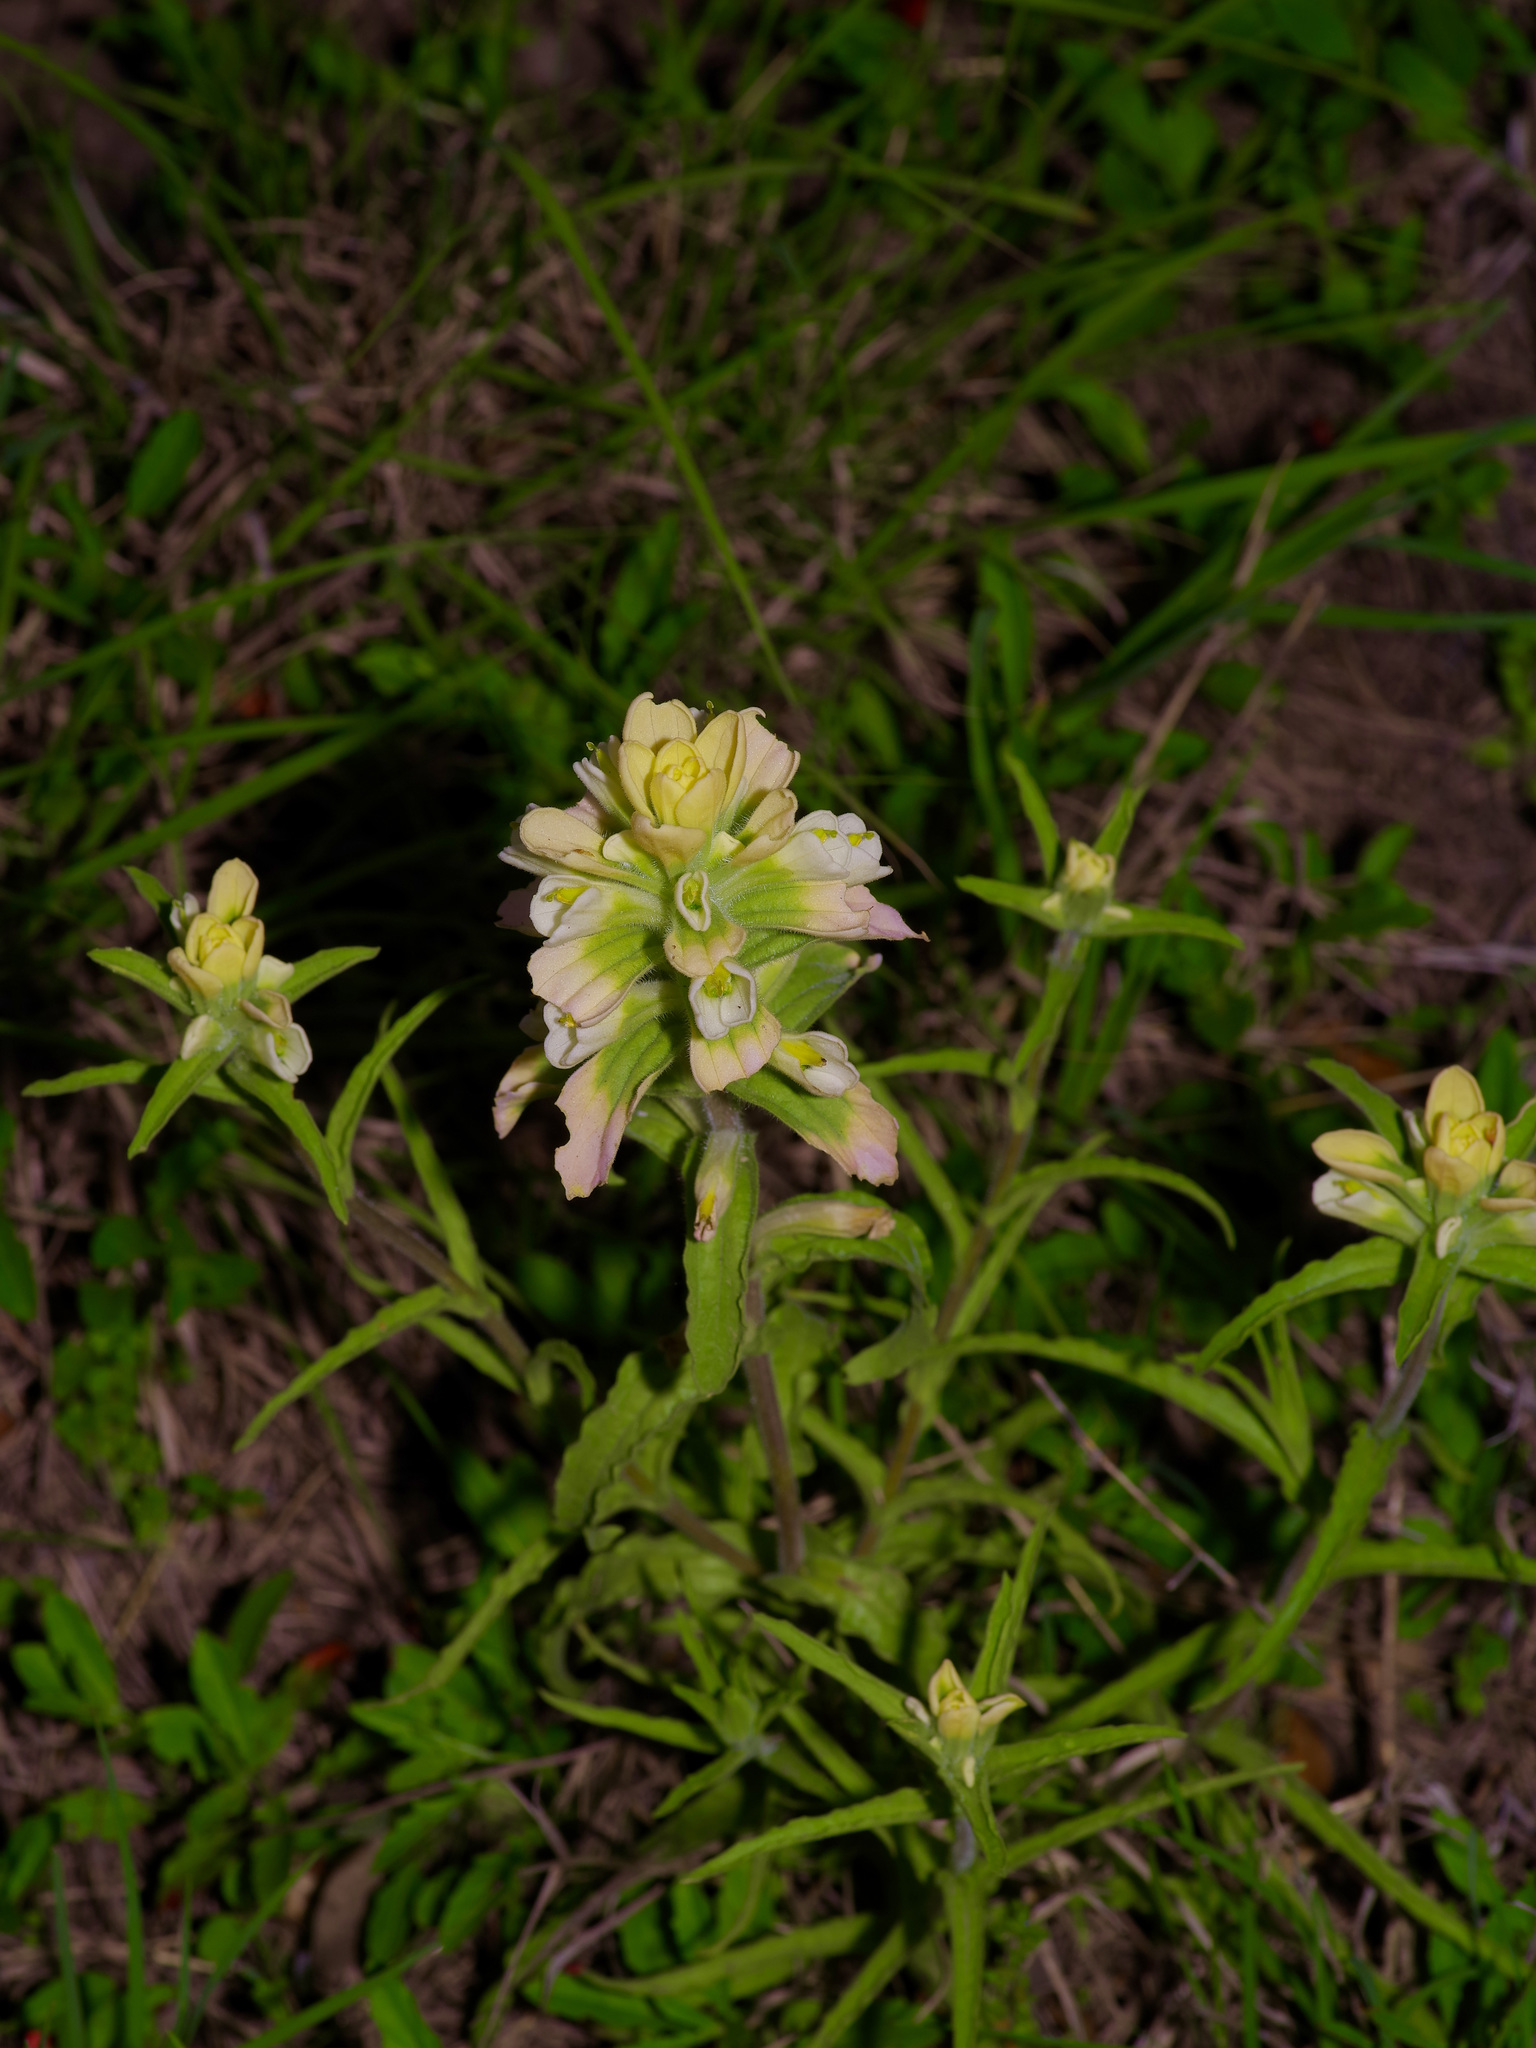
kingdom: Plantae
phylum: Tracheophyta
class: Magnoliopsida
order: Lamiales
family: Orobanchaceae
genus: Castilleja
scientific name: Castilleja indivisa
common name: Texas paintbrush
